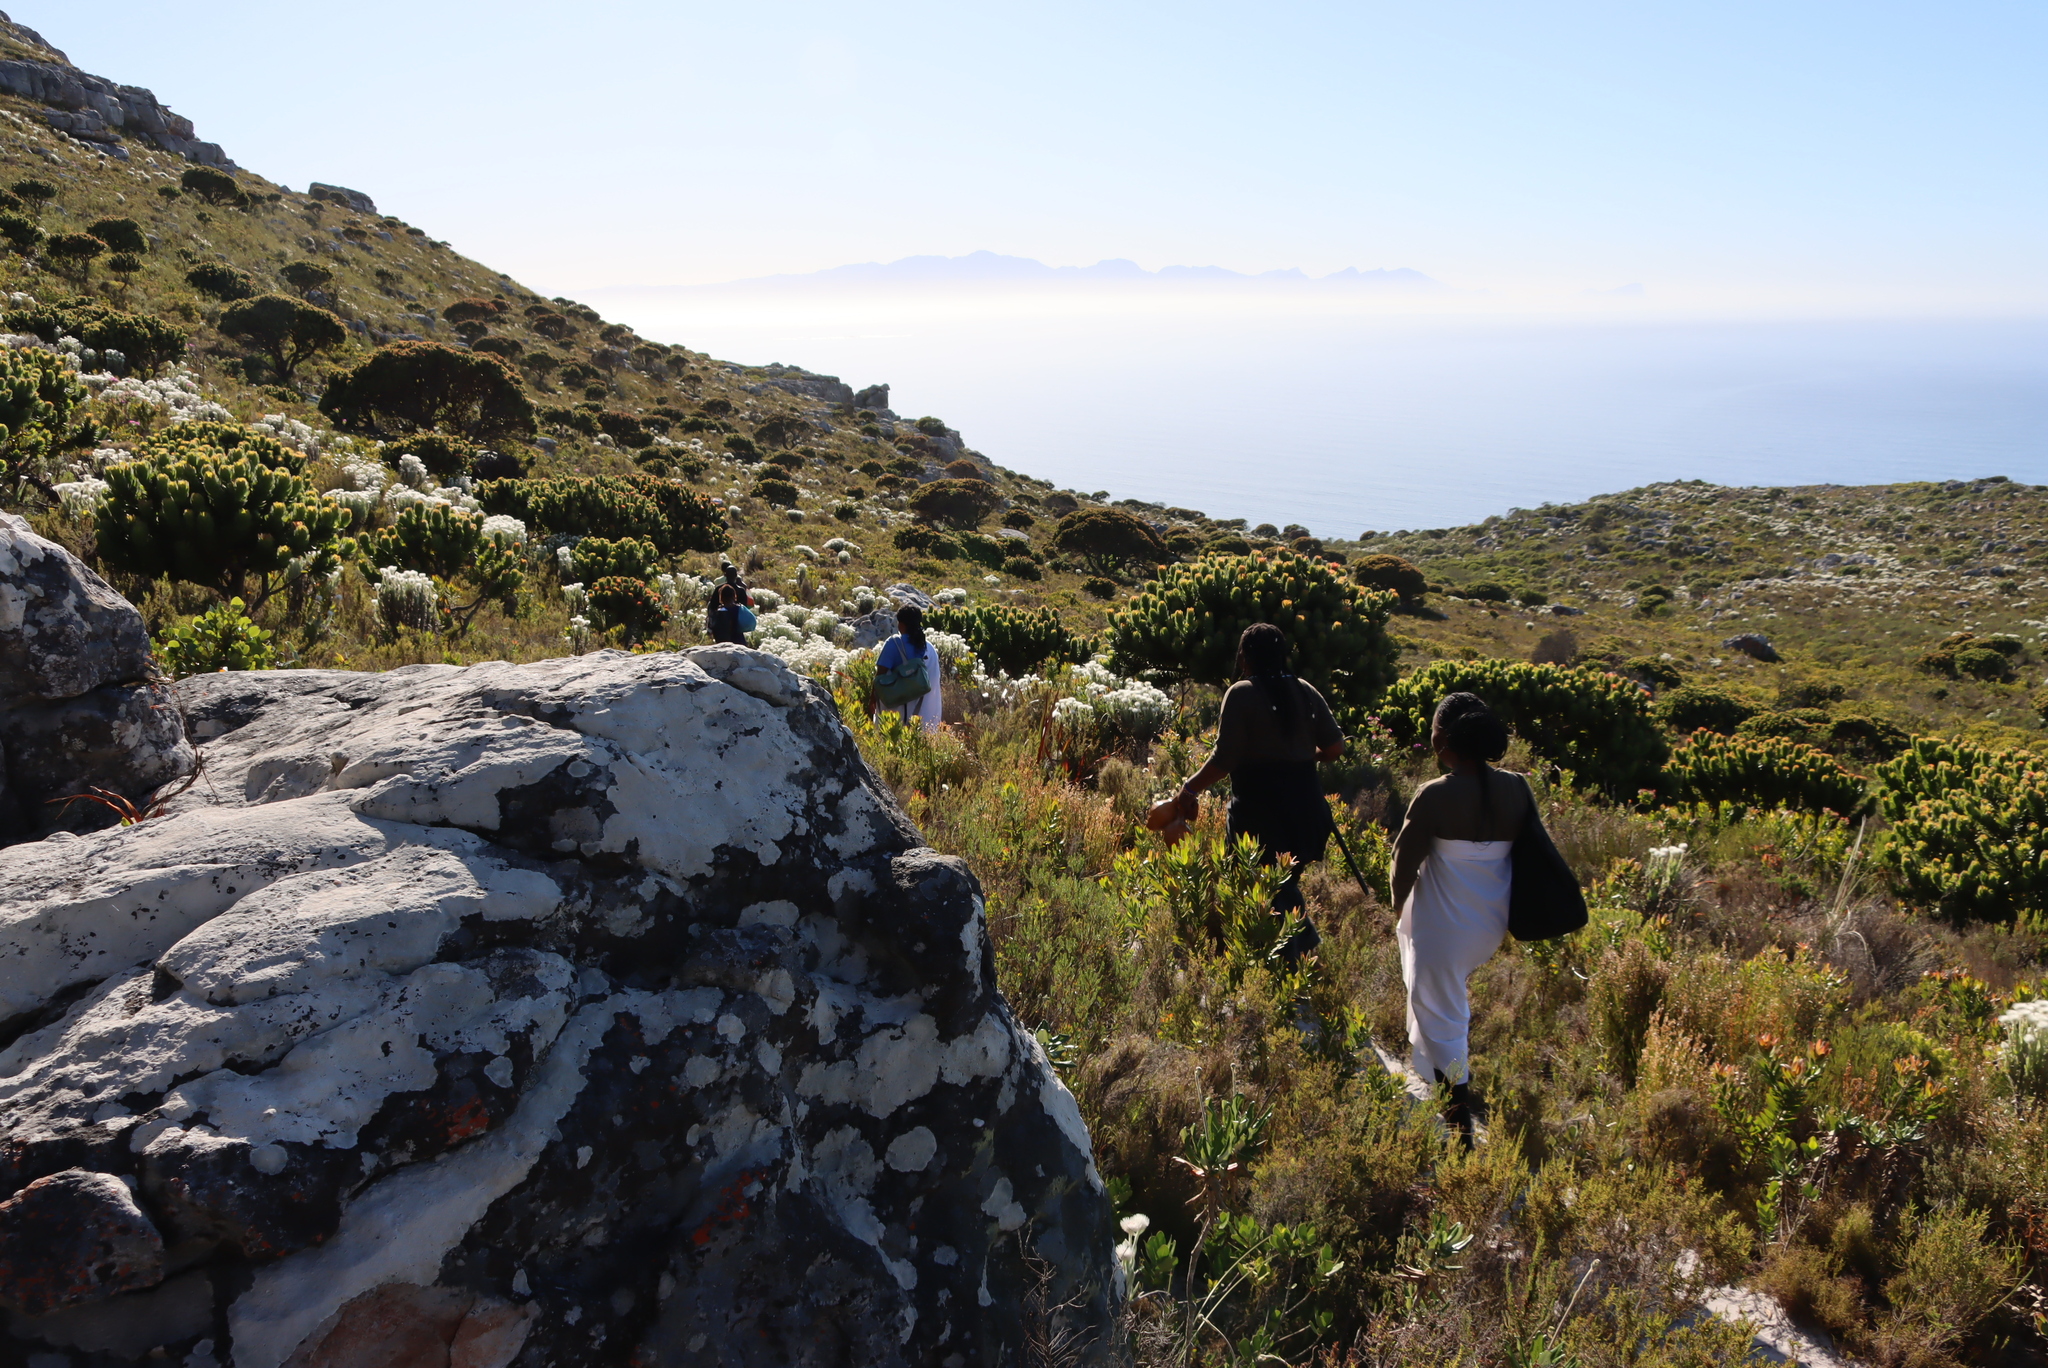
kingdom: Plantae
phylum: Tracheophyta
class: Magnoliopsida
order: Proteales
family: Proteaceae
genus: Mimetes
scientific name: Mimetes fimbriifolius
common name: Fringed bottlebrush
